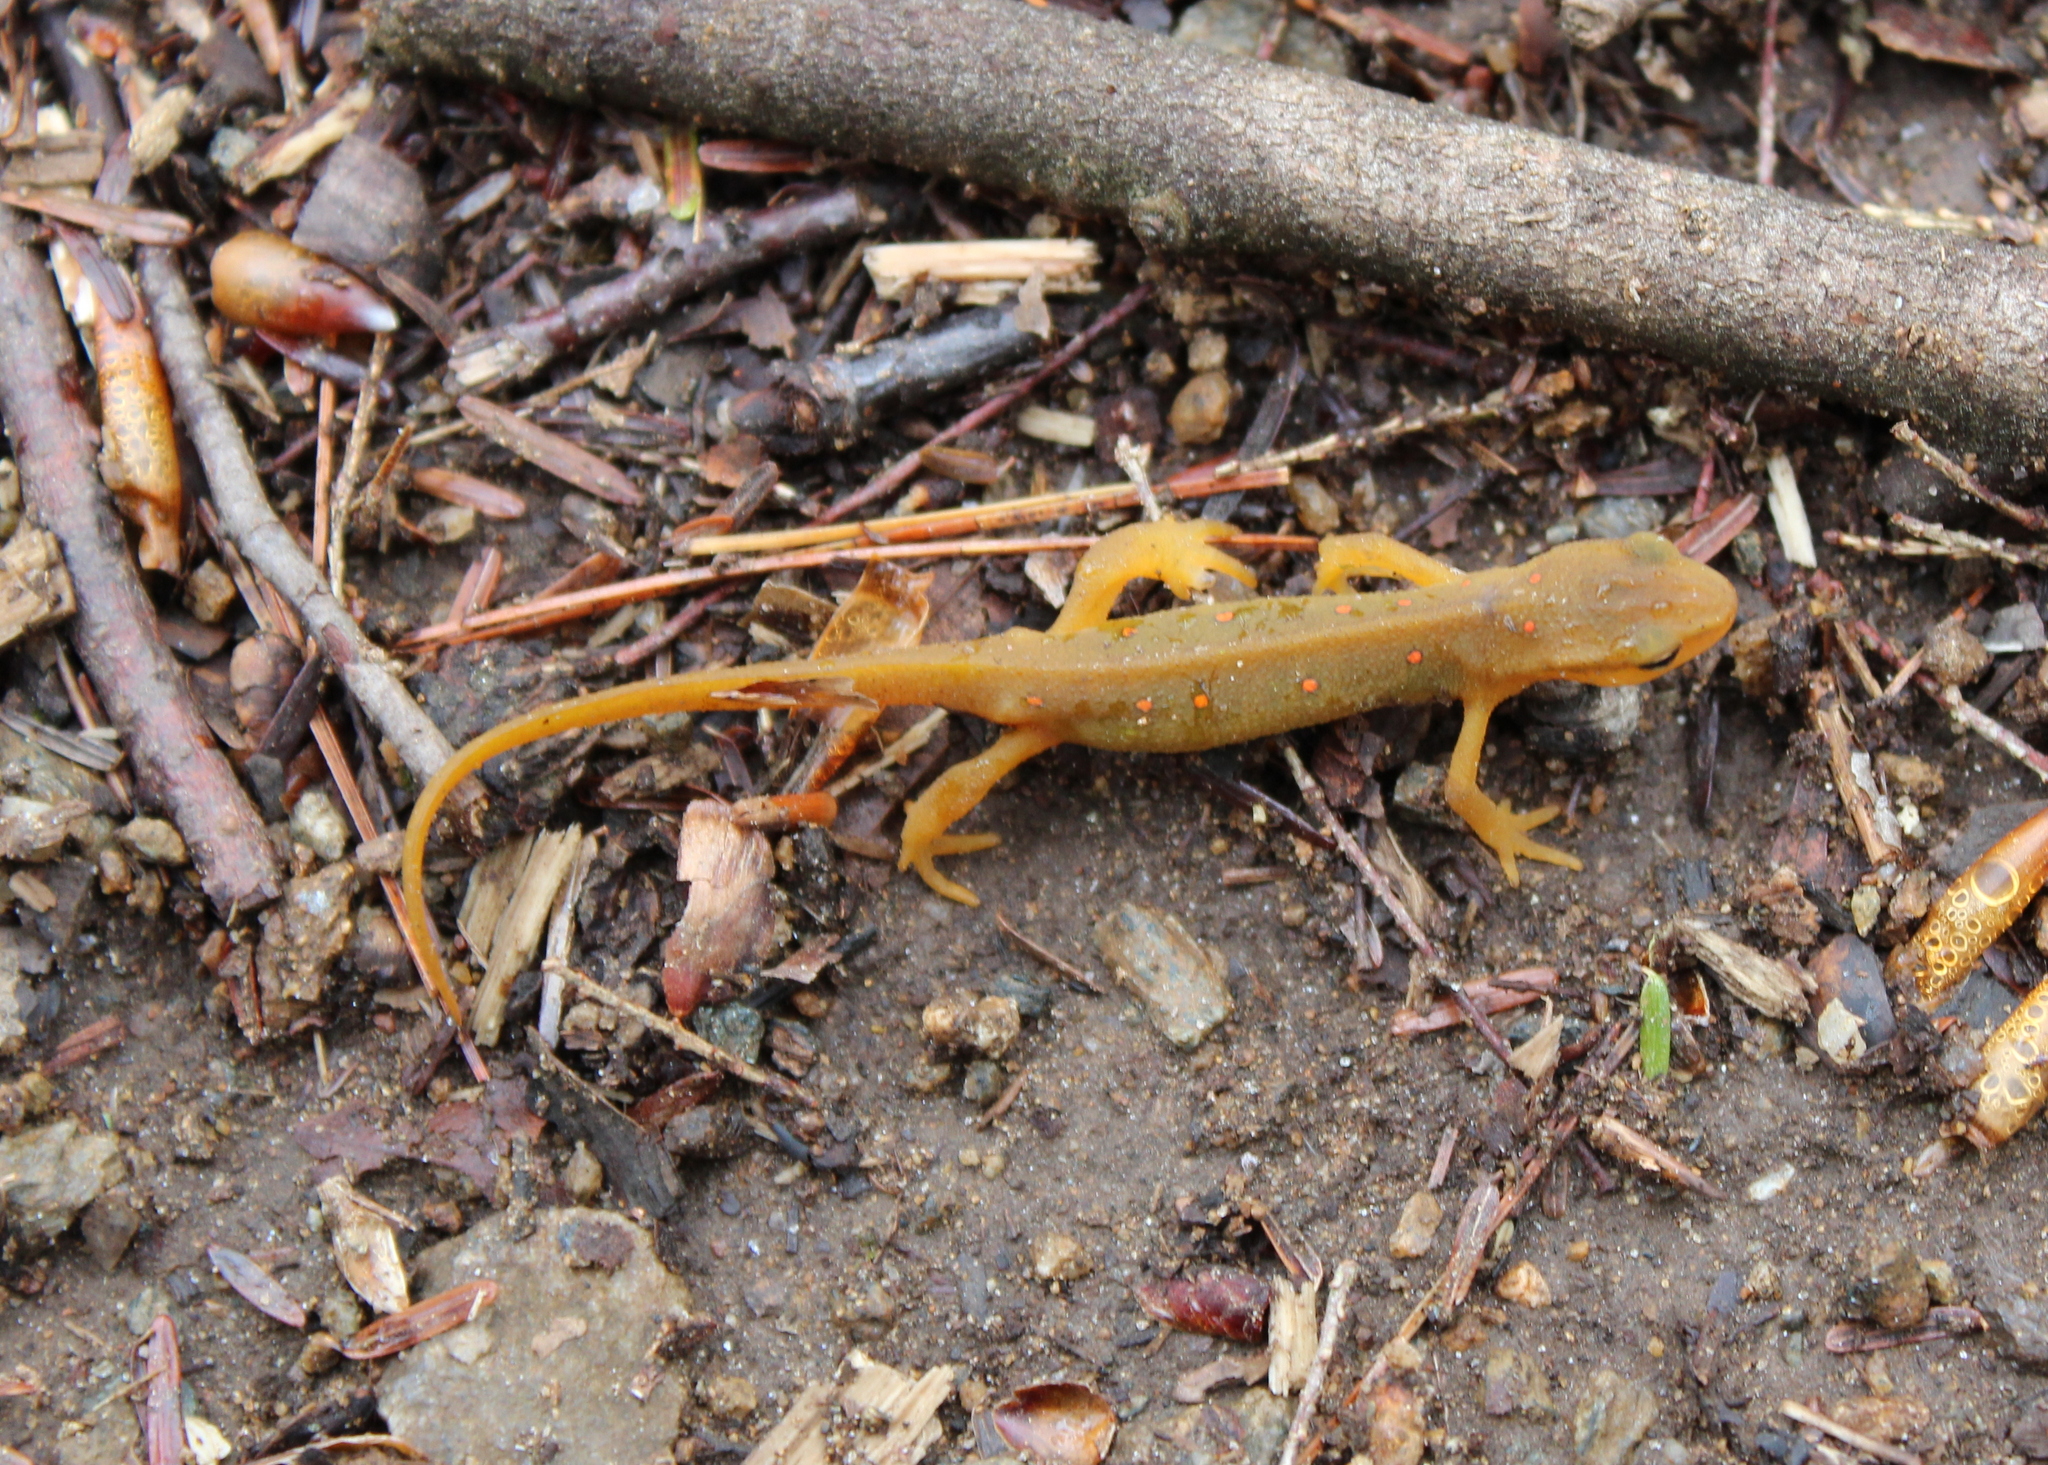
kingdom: Animalia
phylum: Chordata
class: Amphibia
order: Caudata
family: Salamandridae
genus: Notophthalmus
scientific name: Notophthalmus viridescens
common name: Eastern newt
